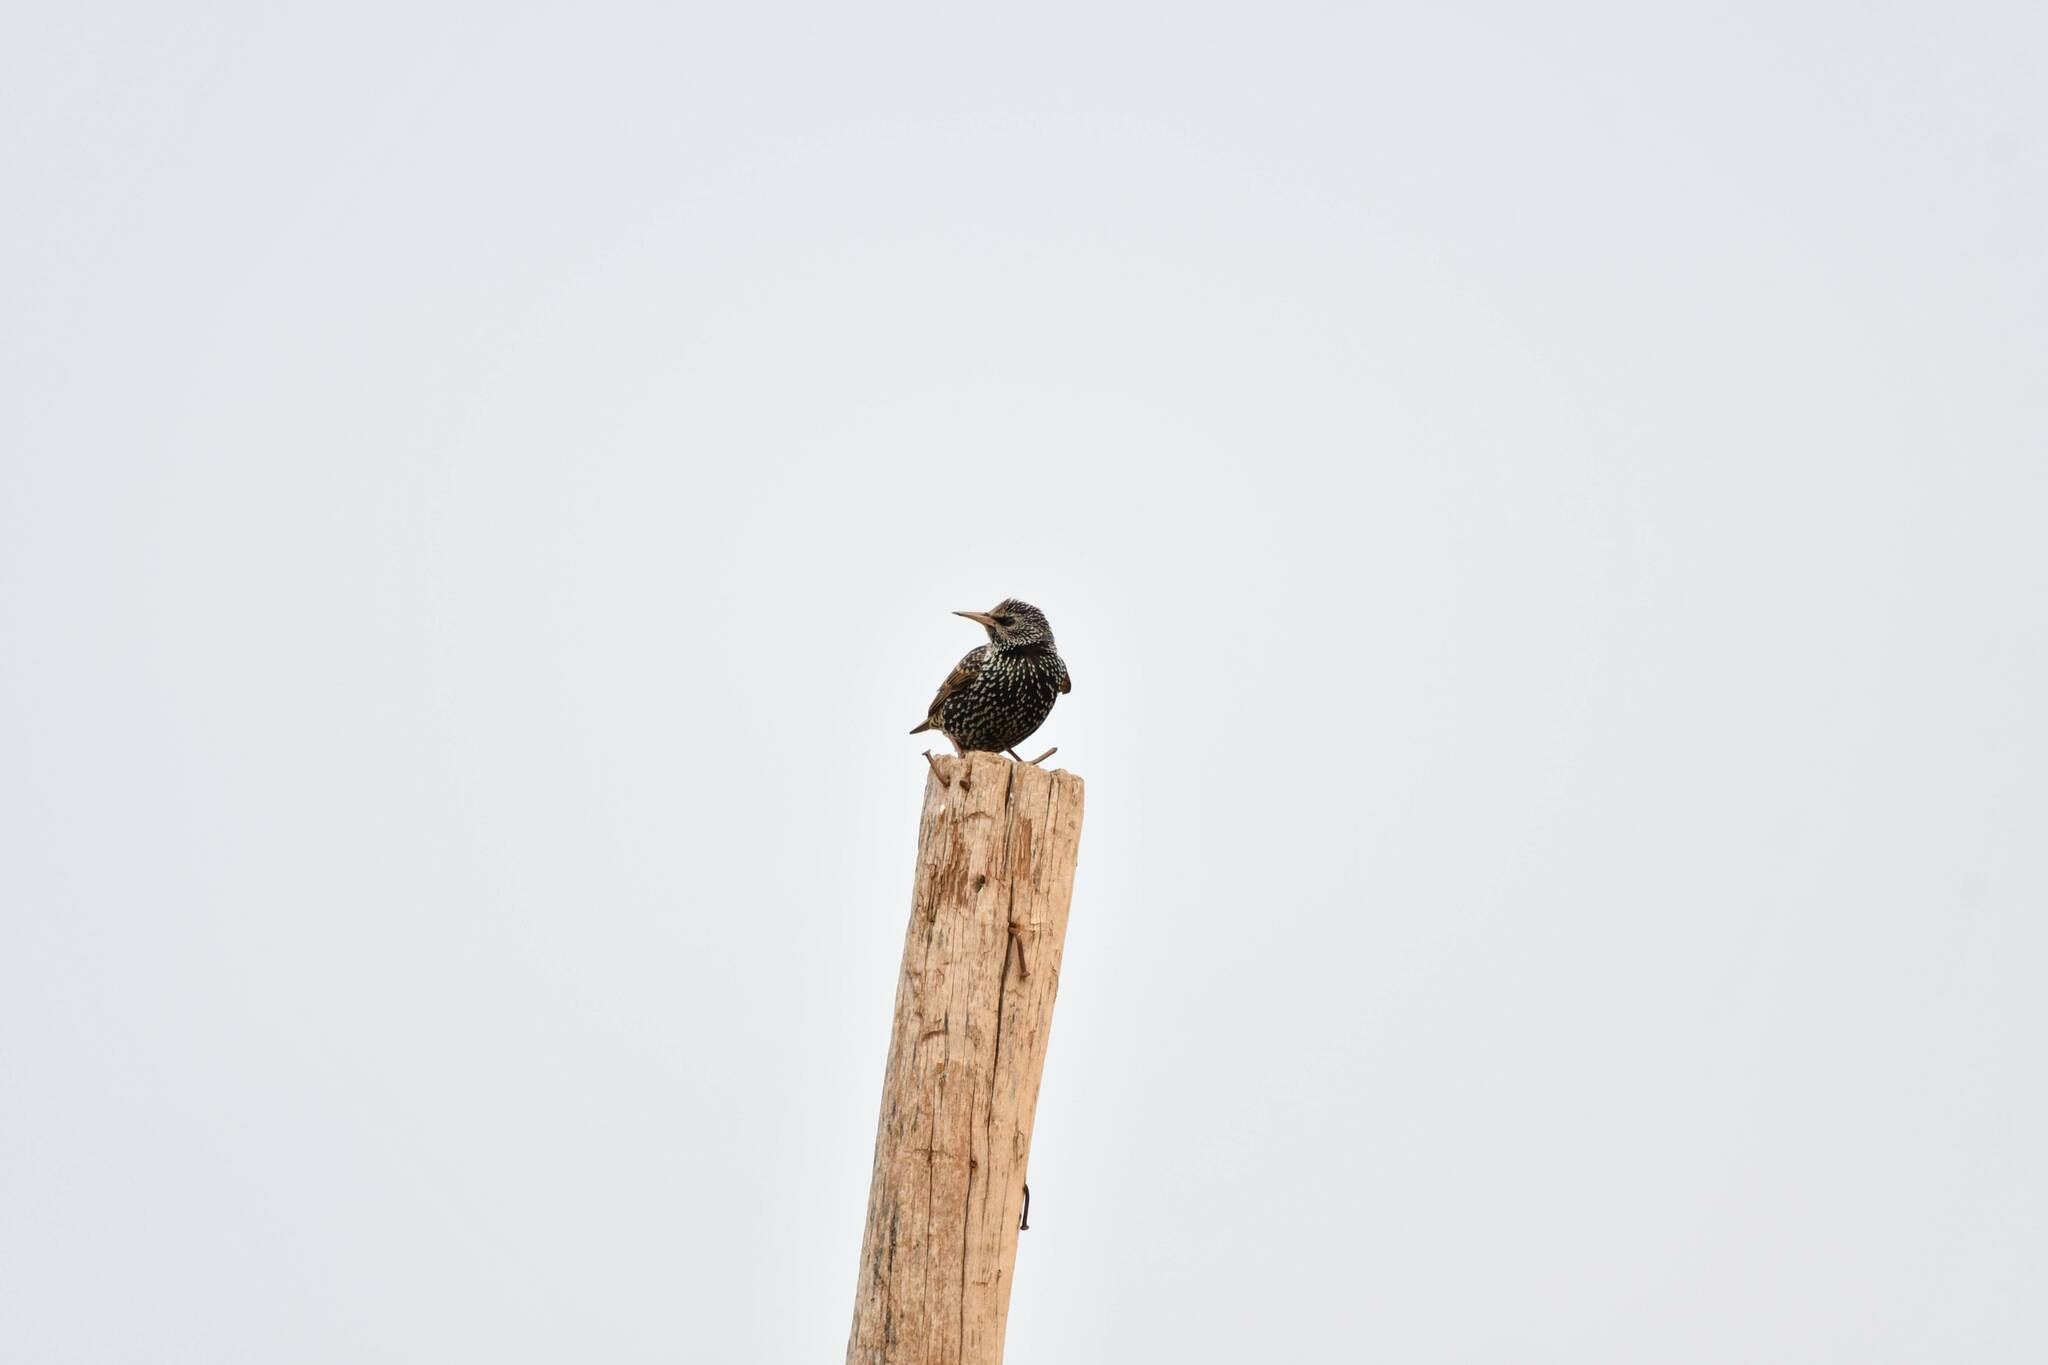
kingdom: Animalia
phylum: Chordata
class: Aves
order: Passeriformes
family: Sturnidae
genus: Sturnus
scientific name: Sturnus vulgaris
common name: Common starling
